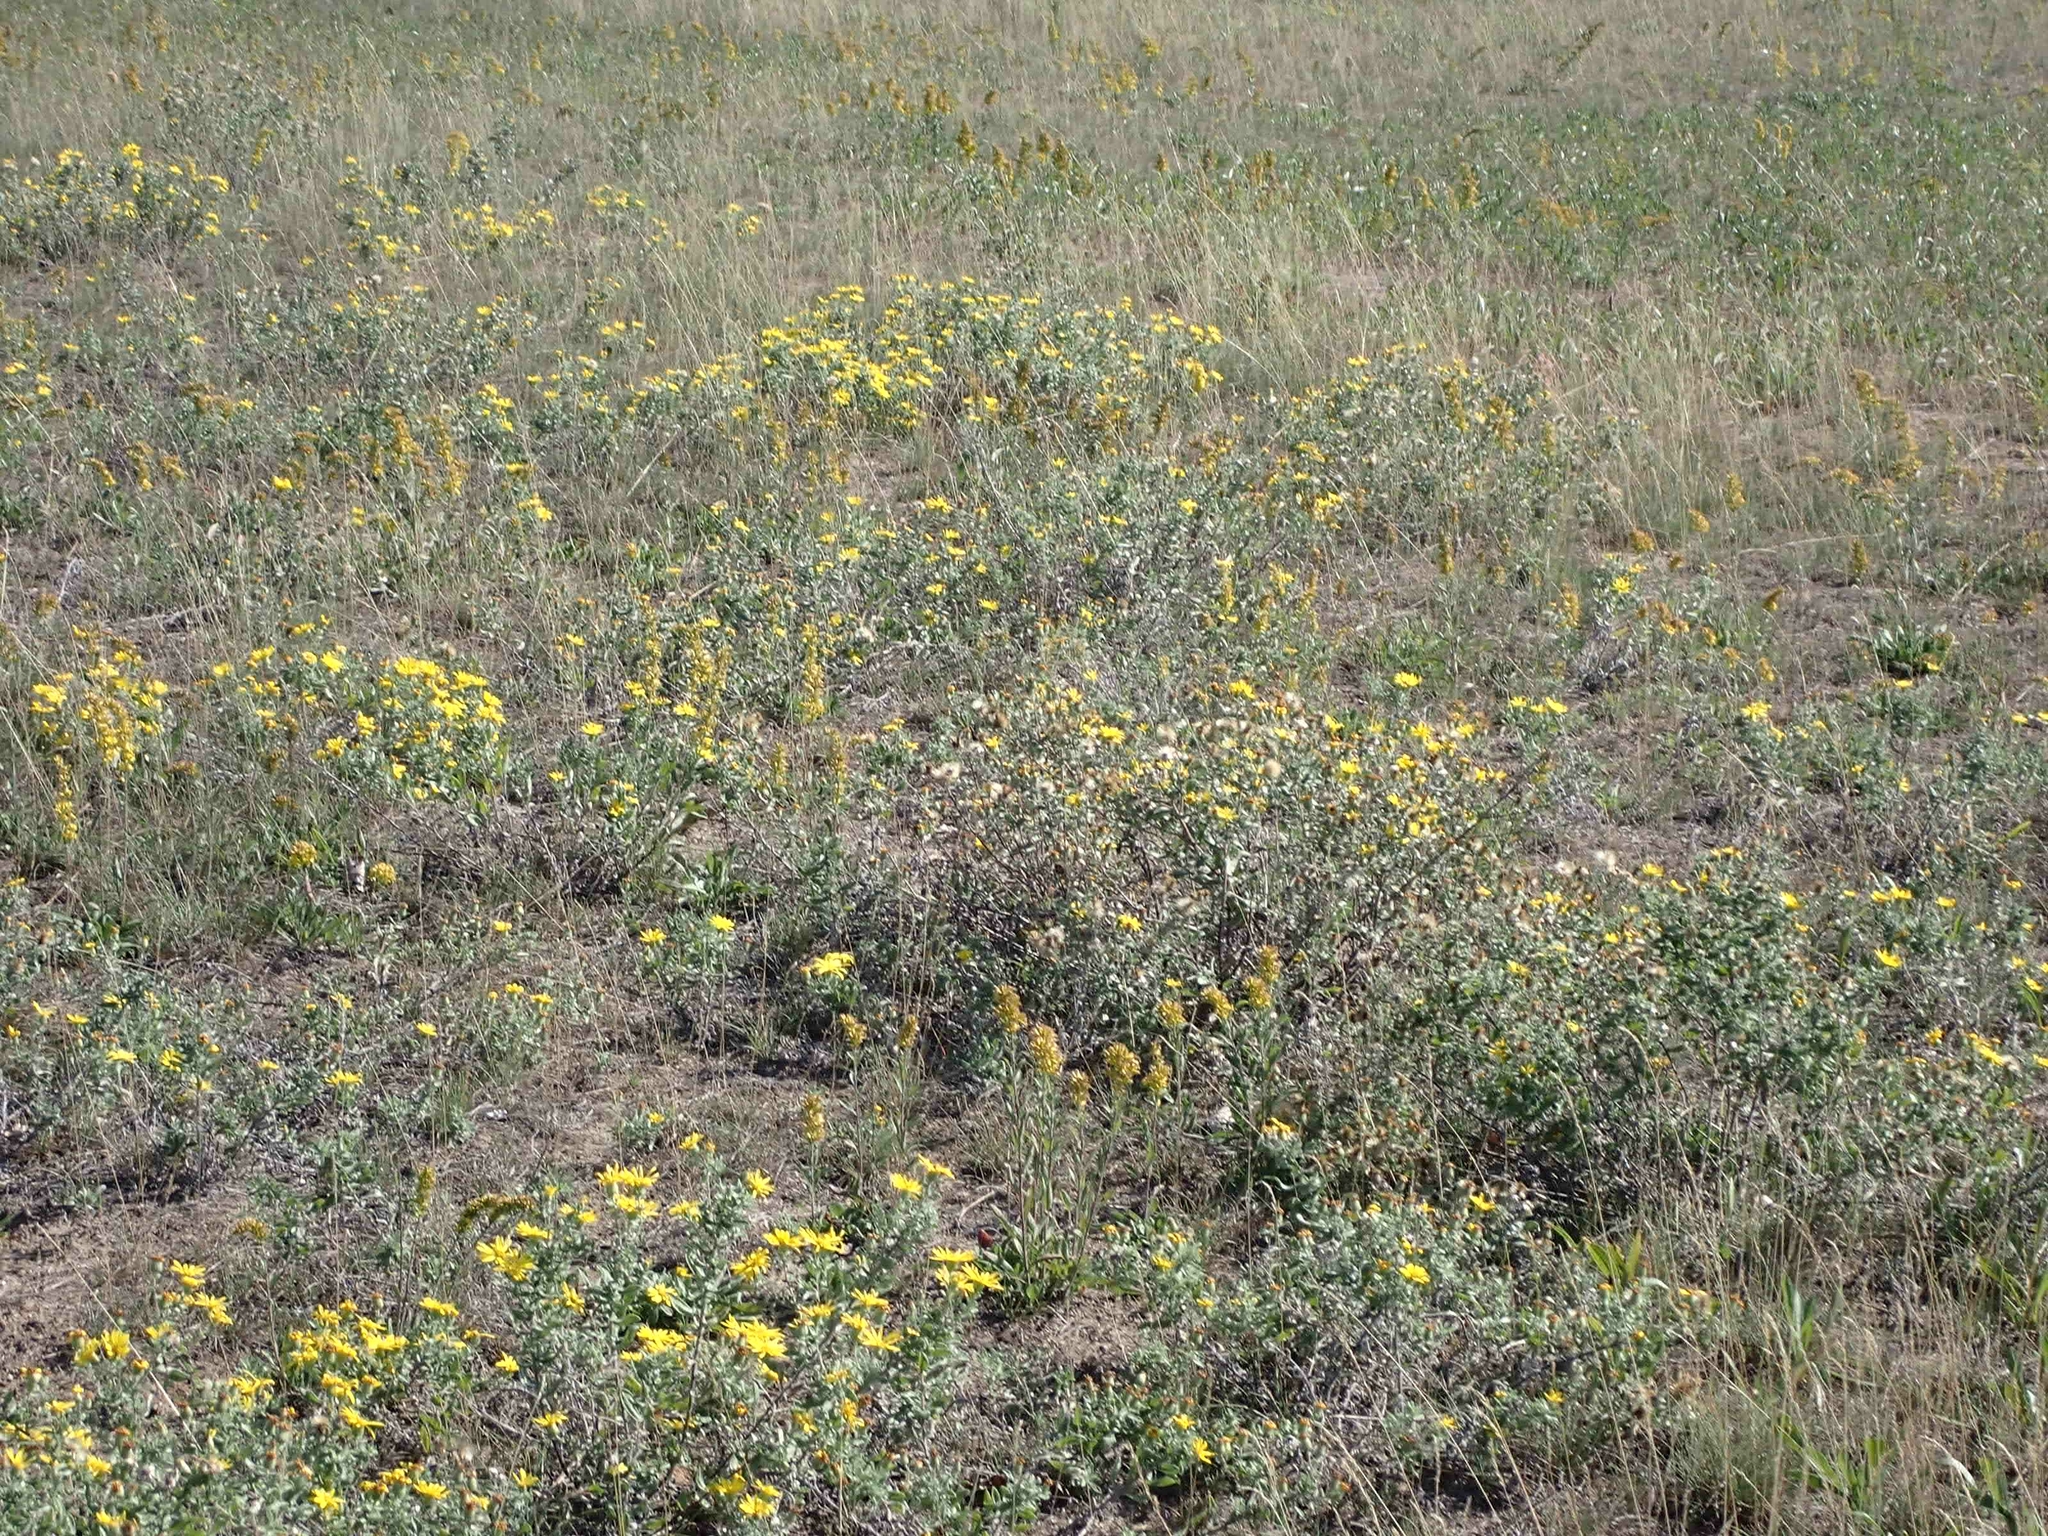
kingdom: Plantae
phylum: Tracheophyta
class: Magnoliopsida
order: Asterales
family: Asteraceae
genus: Heterotheca
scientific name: Heterotheca villosa
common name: Hairy false goldenaster
